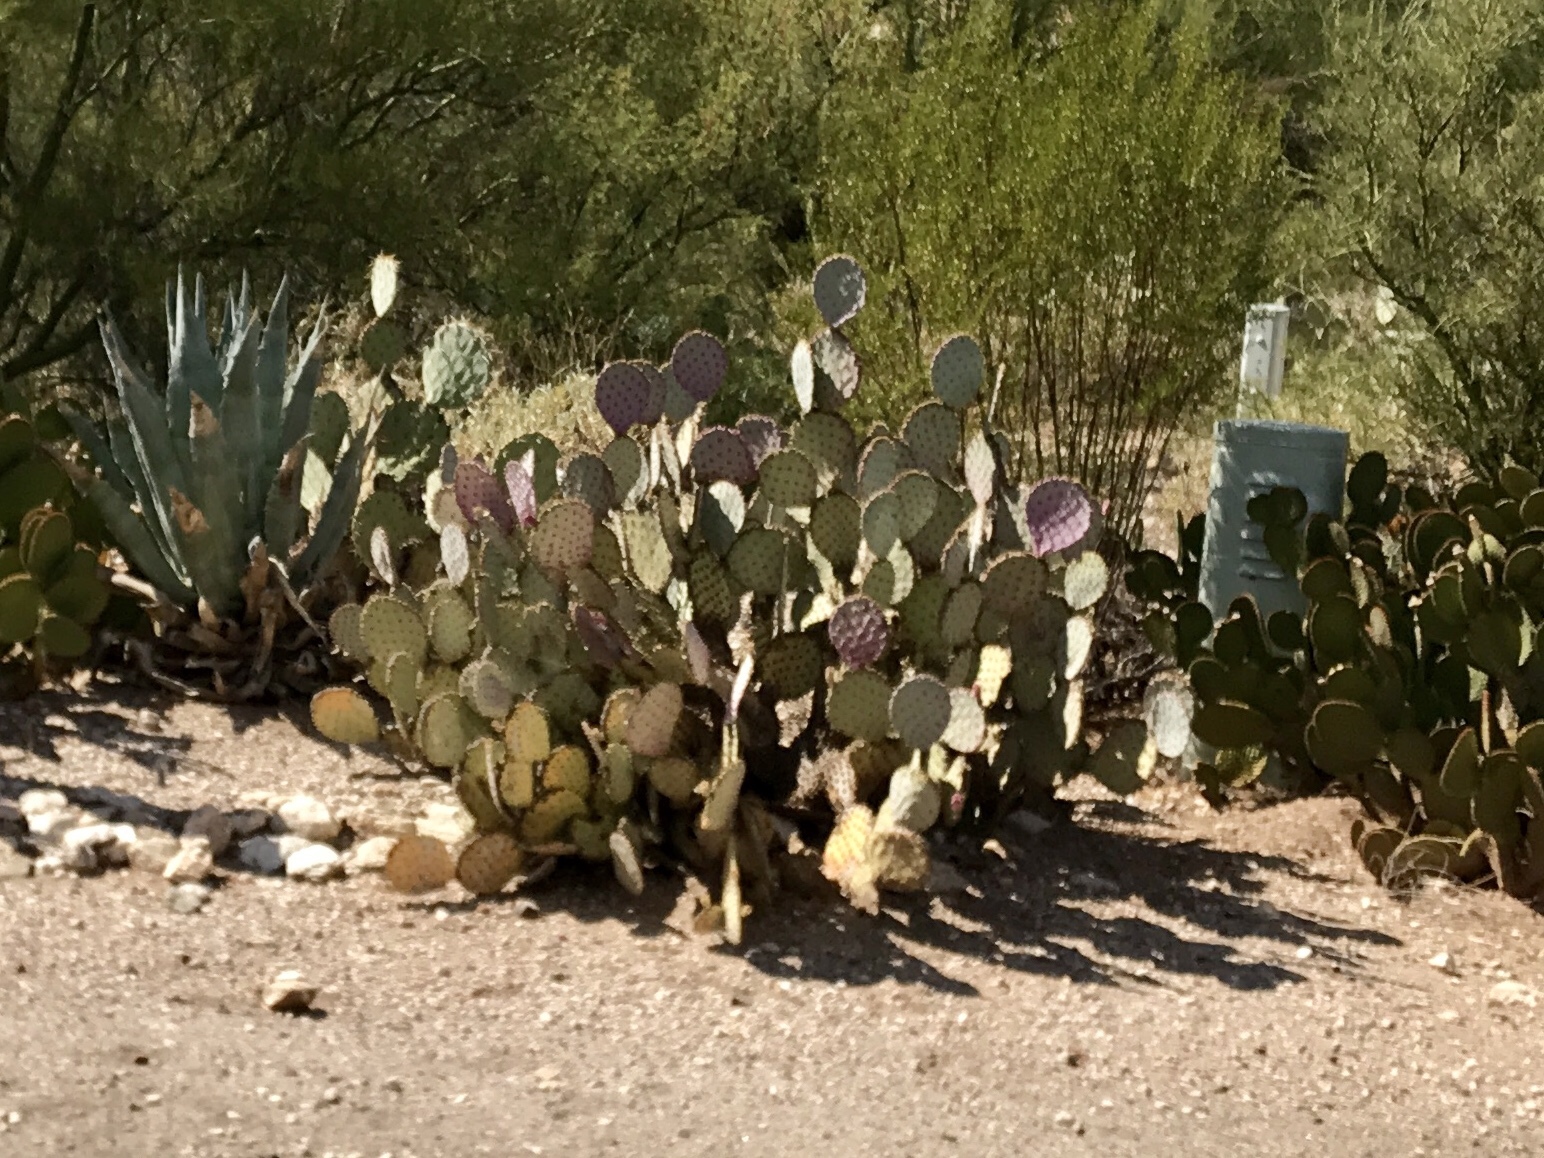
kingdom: Plantae
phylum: Tracheophyta
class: Magnoliopsida
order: Caryophyllales
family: Cactaceae
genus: Opuntia
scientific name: Opuntia gosseliniana
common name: Violet prickly-pear
